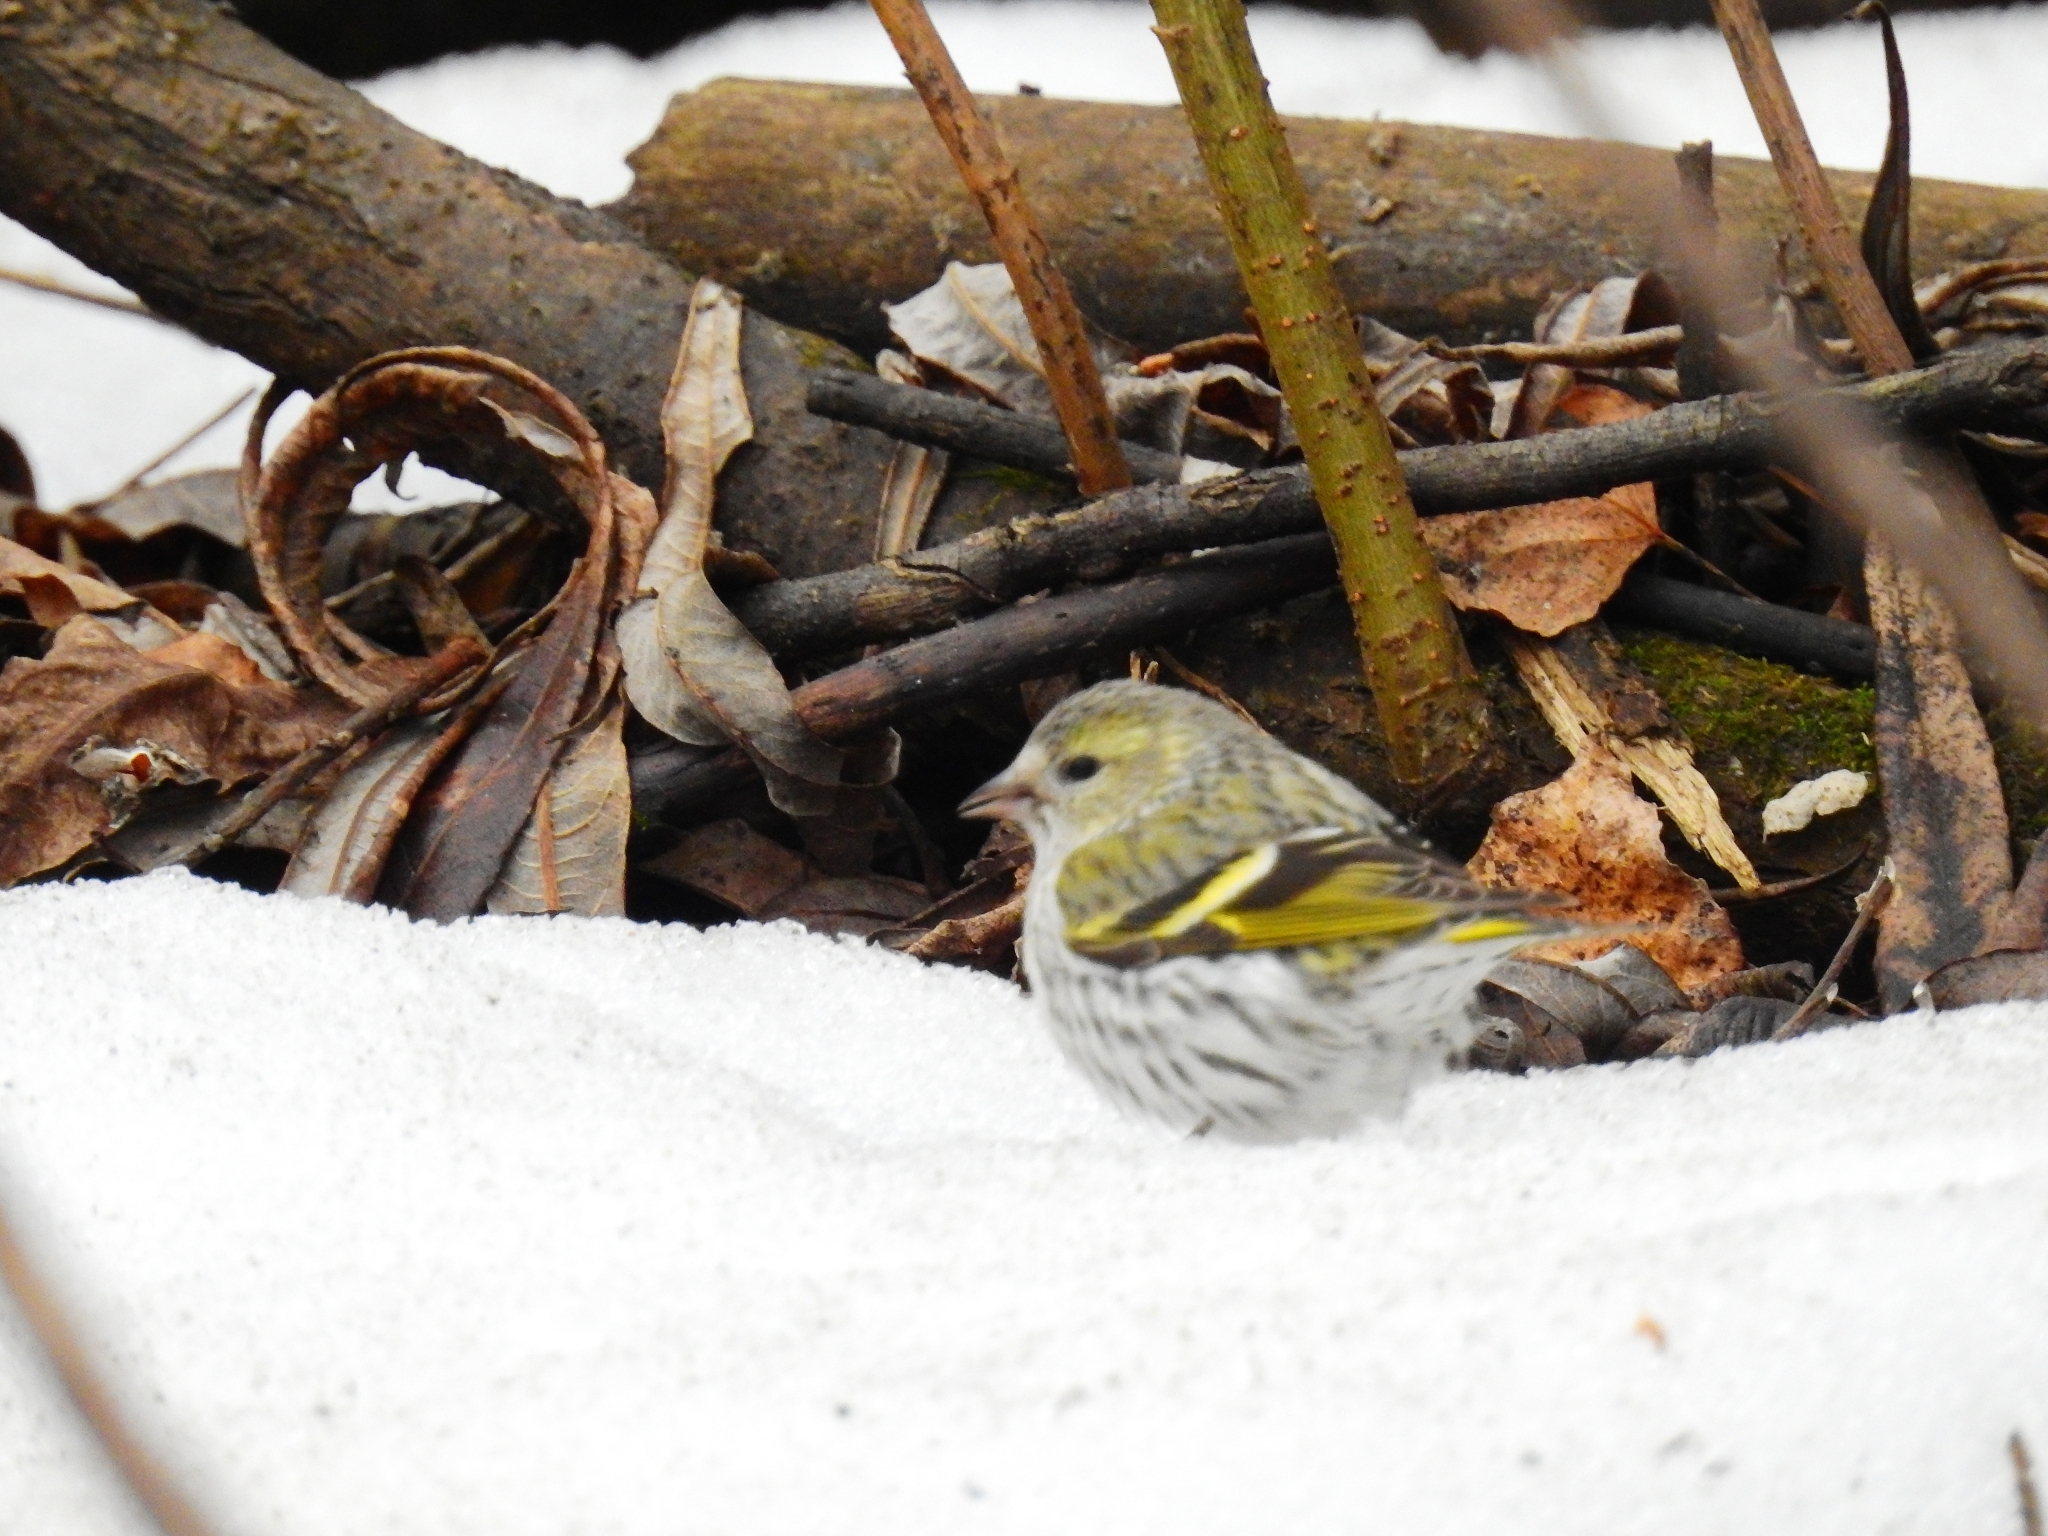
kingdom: Animalia
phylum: Chordata
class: Aves
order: Passeriformes
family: Fringillidae
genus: Spinus
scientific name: Spinus spinus
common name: Eurasian siskin
